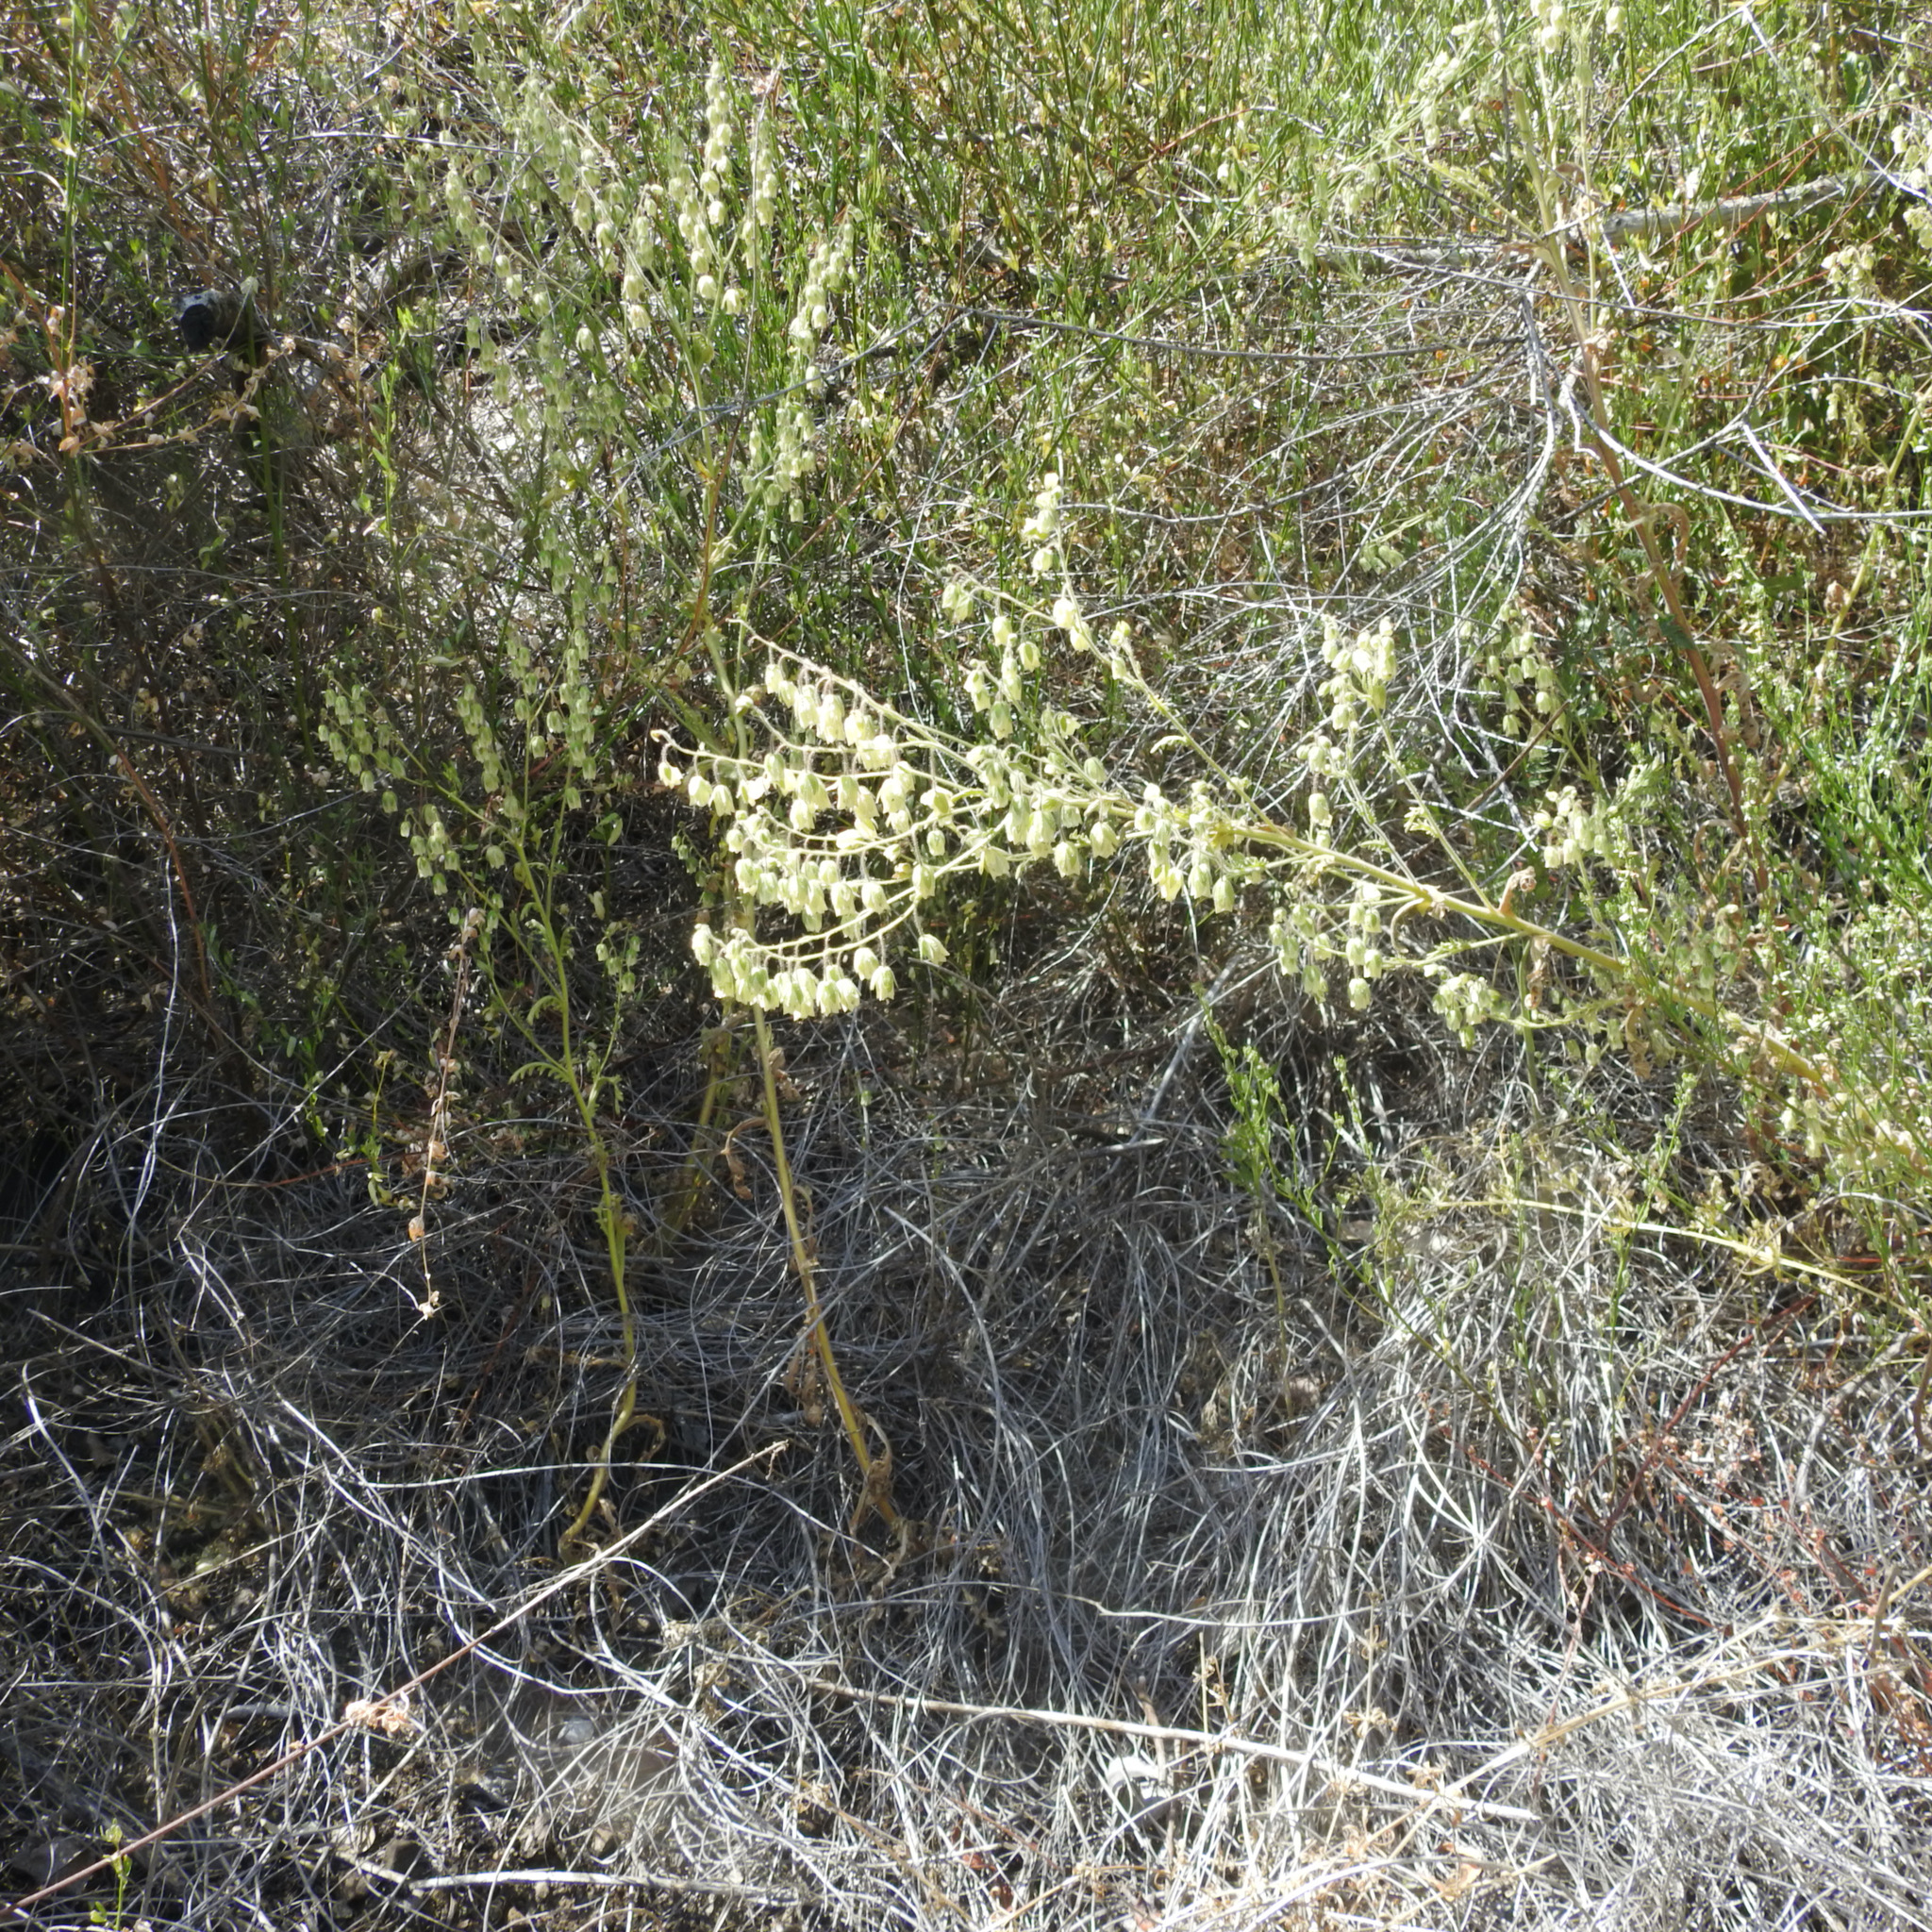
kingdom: Plantae
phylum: Tracheophyta
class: Magnoliopsida
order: Boraginales
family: Hydrophyllaceae
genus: Emmenanthe
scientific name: Emmenanthe penduliflora
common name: Whispering-bells
